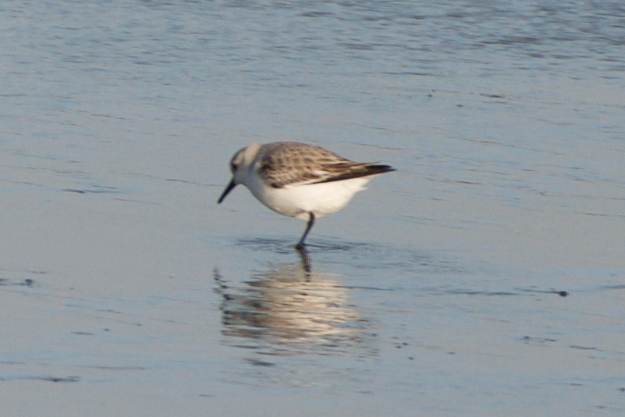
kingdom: Animalia
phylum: Chordata
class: Aves
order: Charadriiformes
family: Scolopacidae
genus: Calidris
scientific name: Calidris alba
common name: Sanderling
